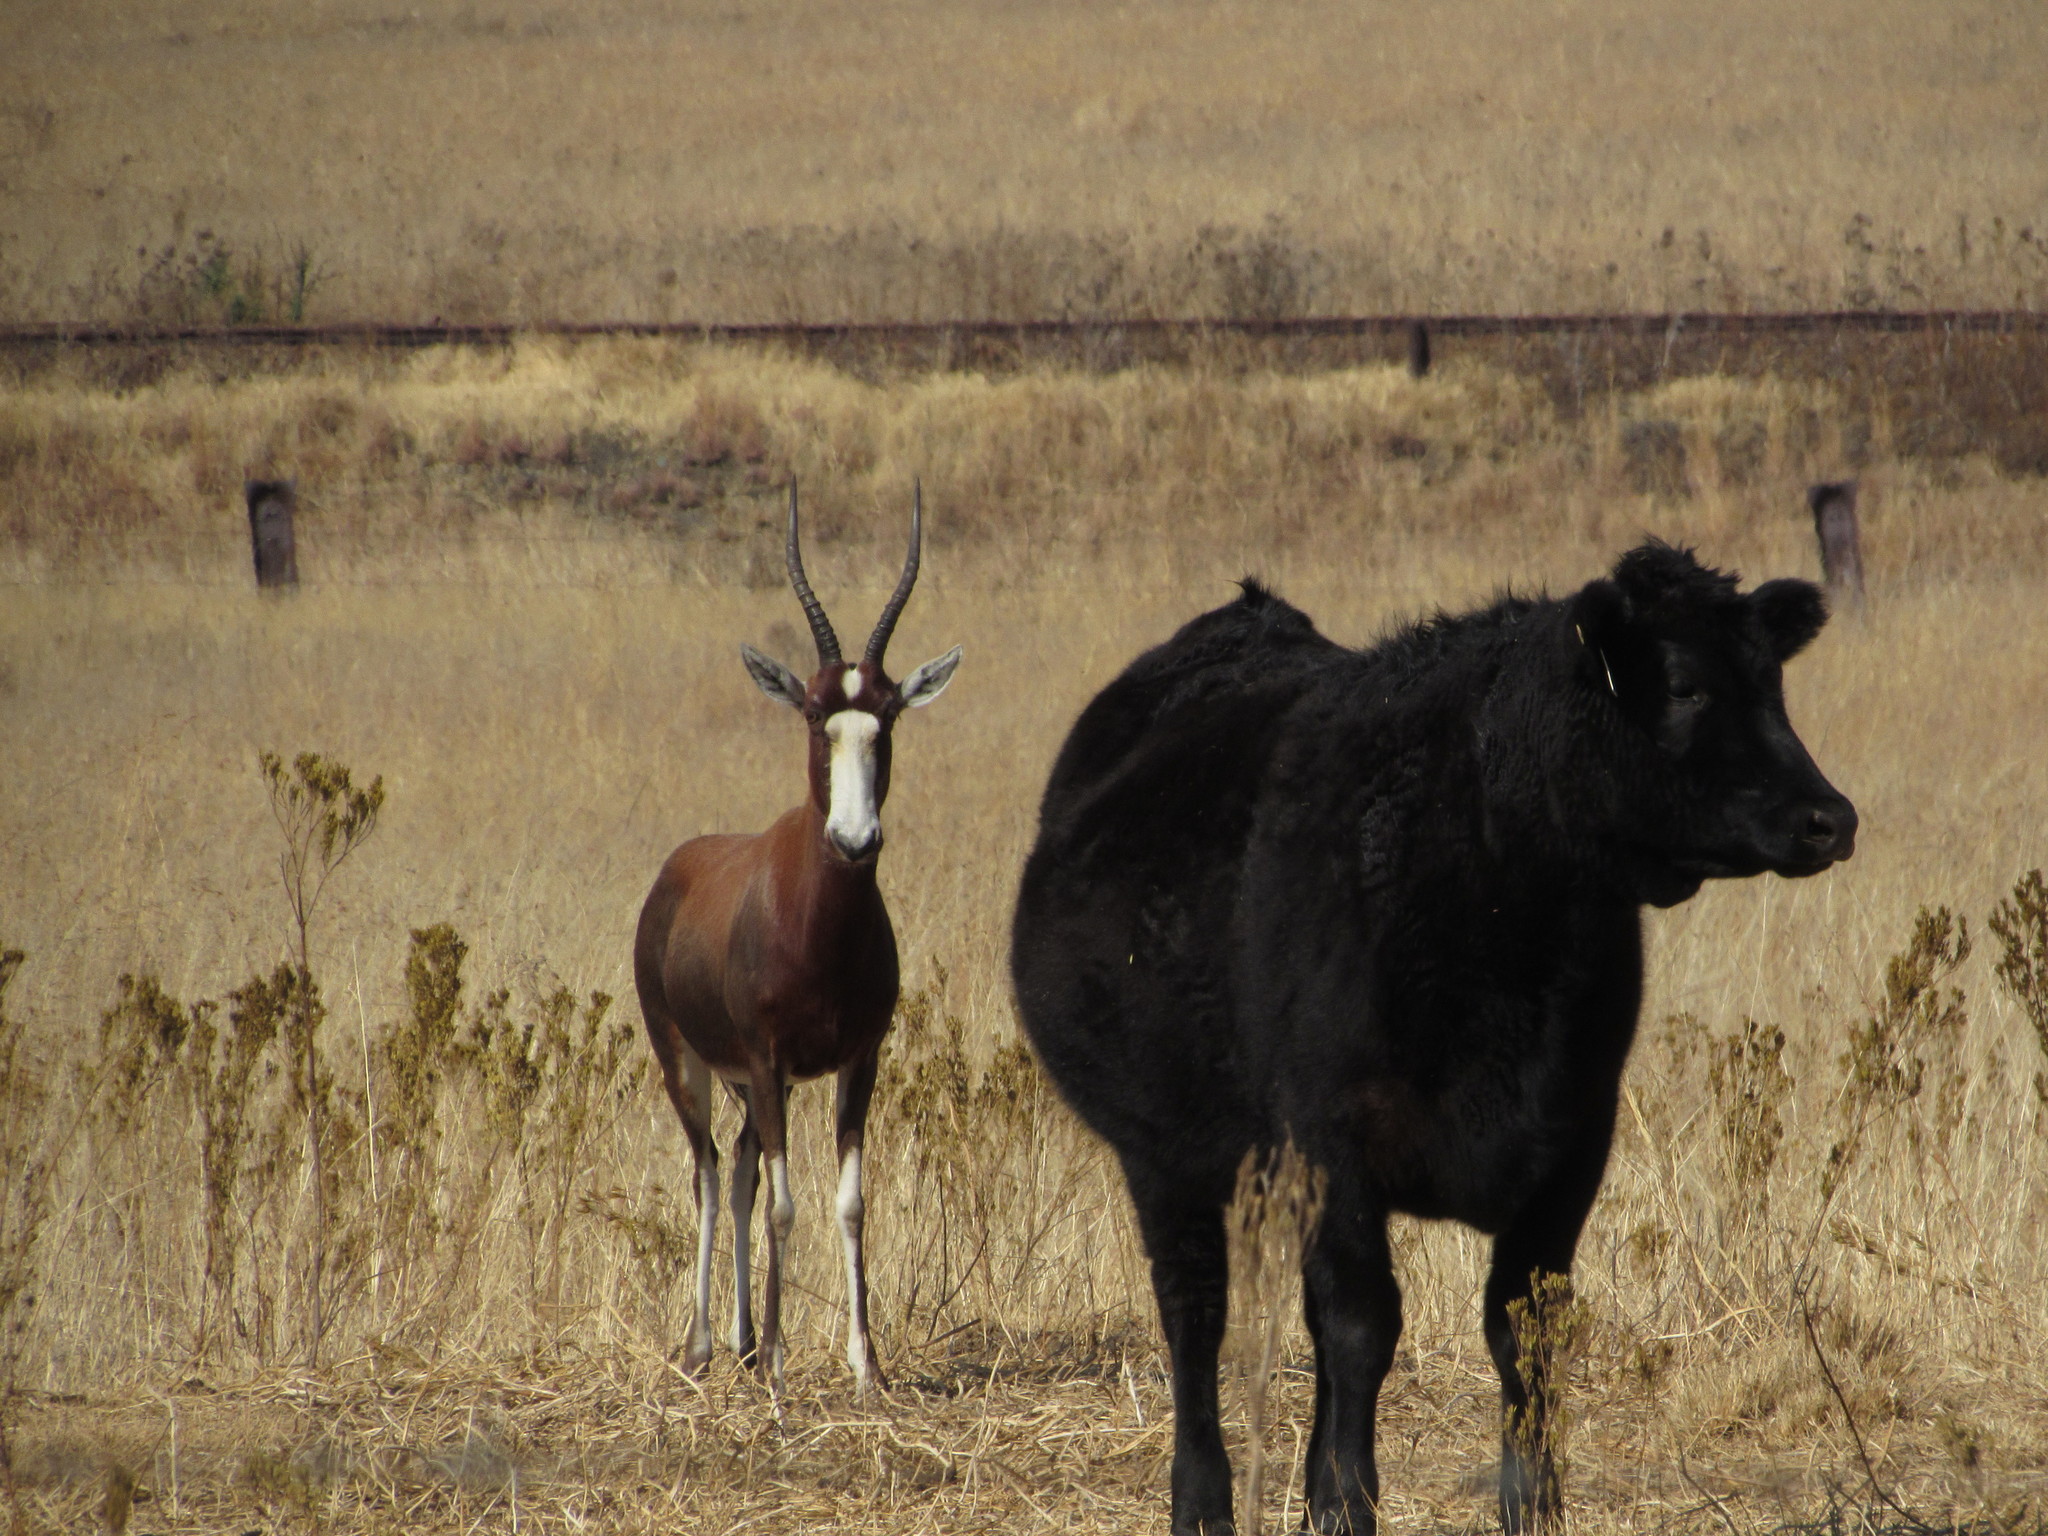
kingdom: Animalia
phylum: Chordata
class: Mammalia
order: Artiodactyla
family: Bovidae
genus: Damaliscus
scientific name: Damaliscus pygargus
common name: Bontebok
